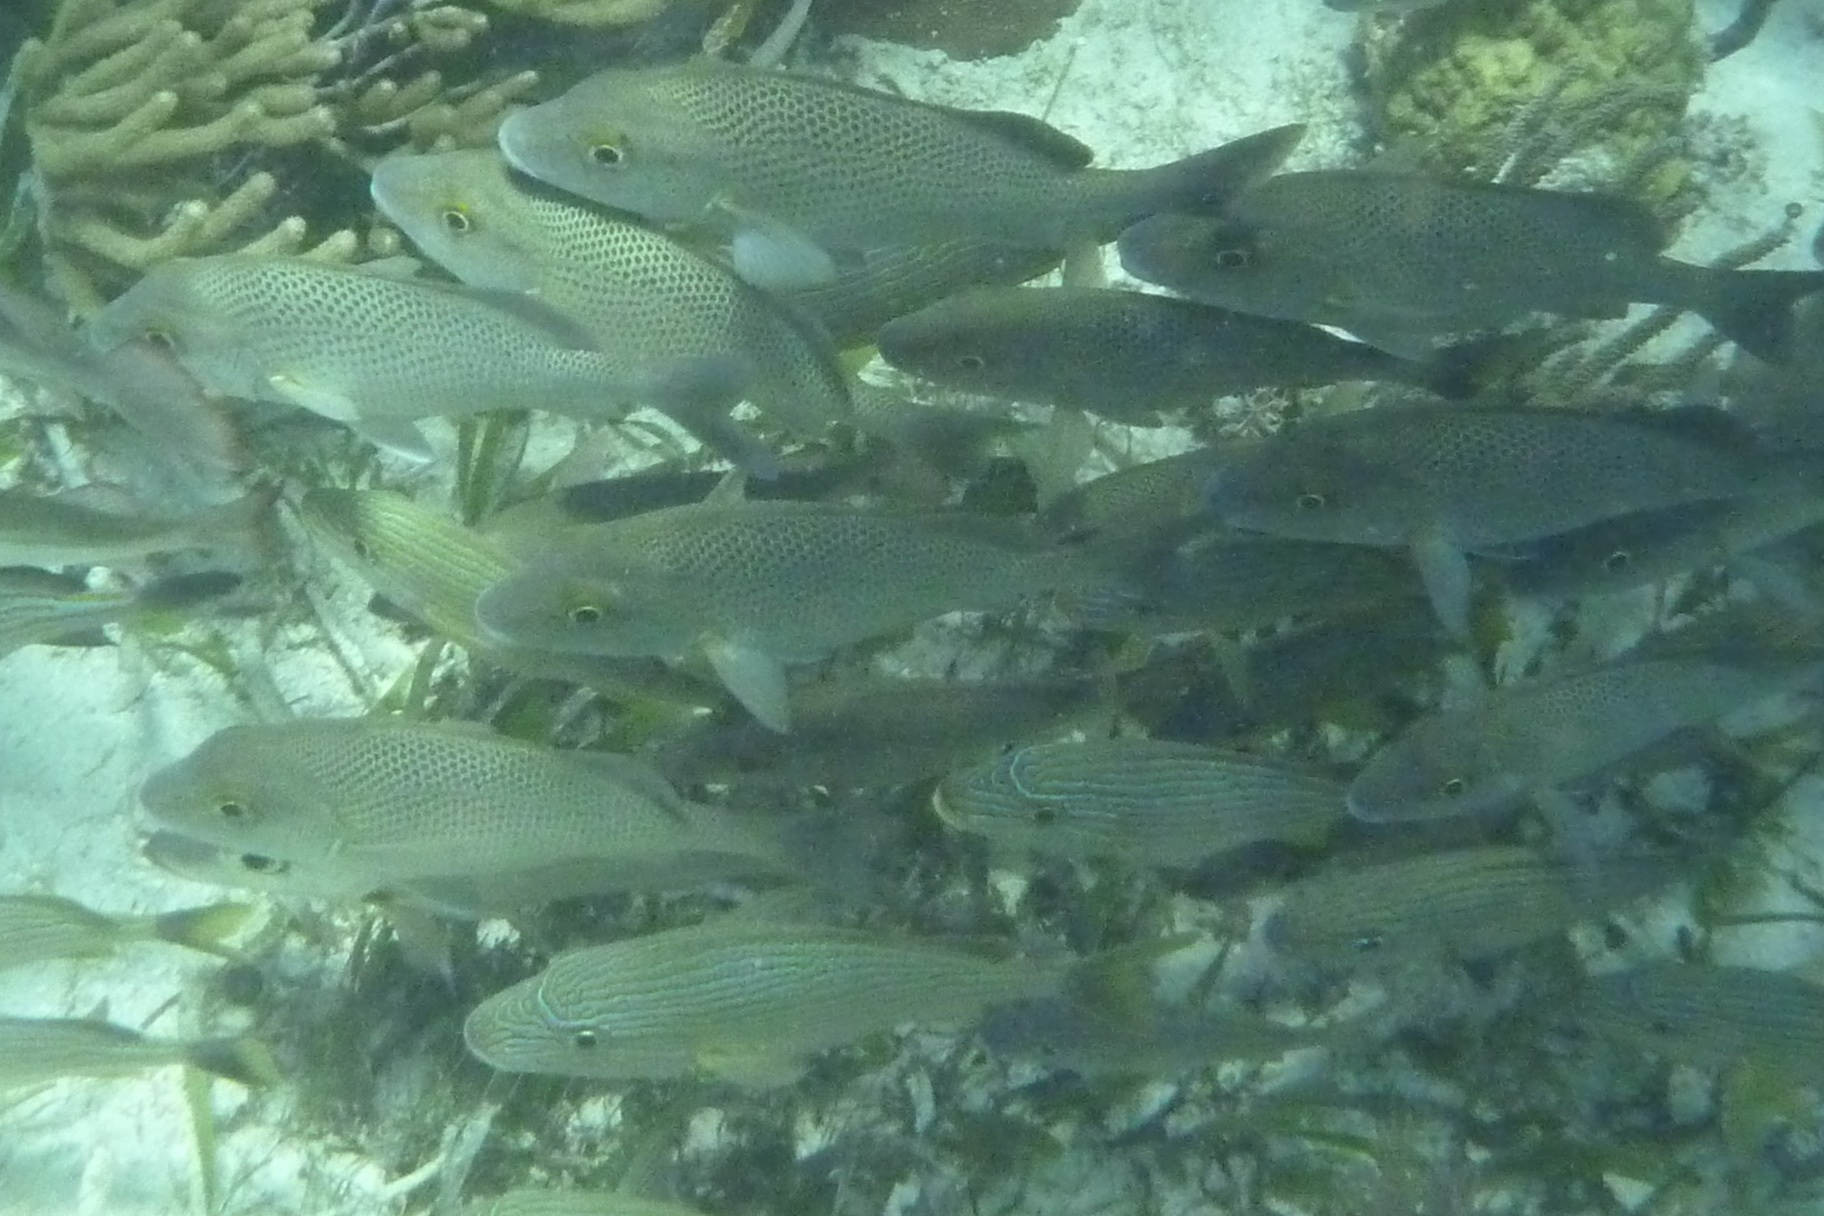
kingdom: Animalia
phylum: Chordata
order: Perciformes
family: Haemulidae
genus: Haemulon
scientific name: Haemulon parra
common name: Sailor's choice
